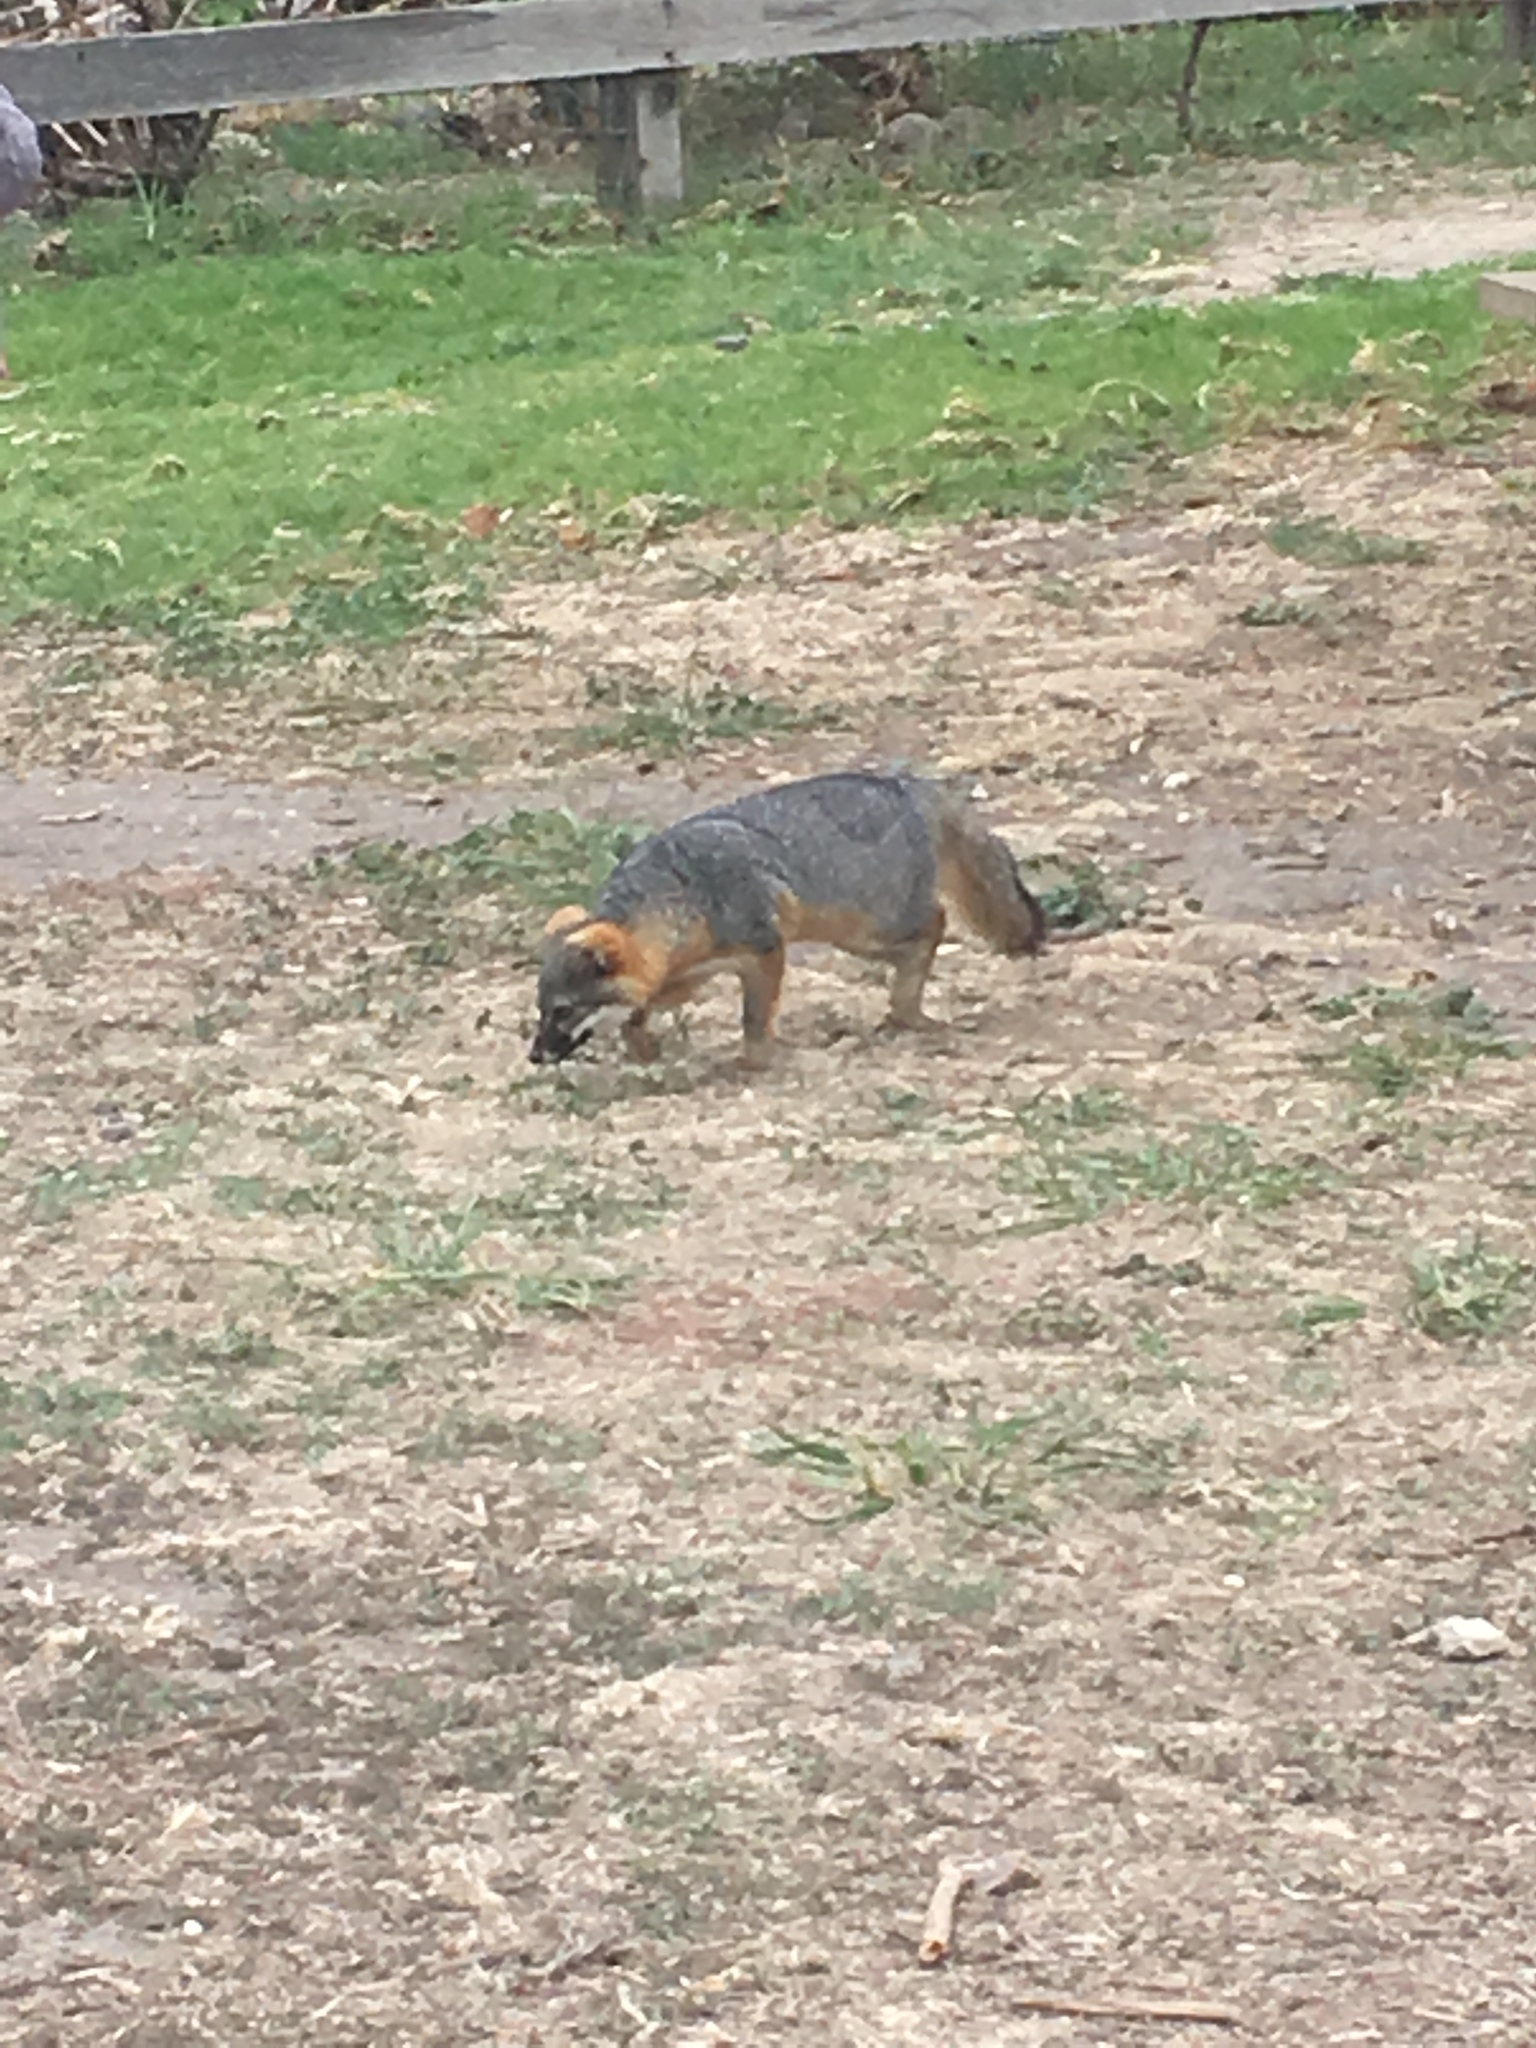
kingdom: Animalia
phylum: Chordata
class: Mammalia
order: Carnivora
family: Canidae
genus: Urocyon
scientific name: Urocyon littoralis
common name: Island gray fox
